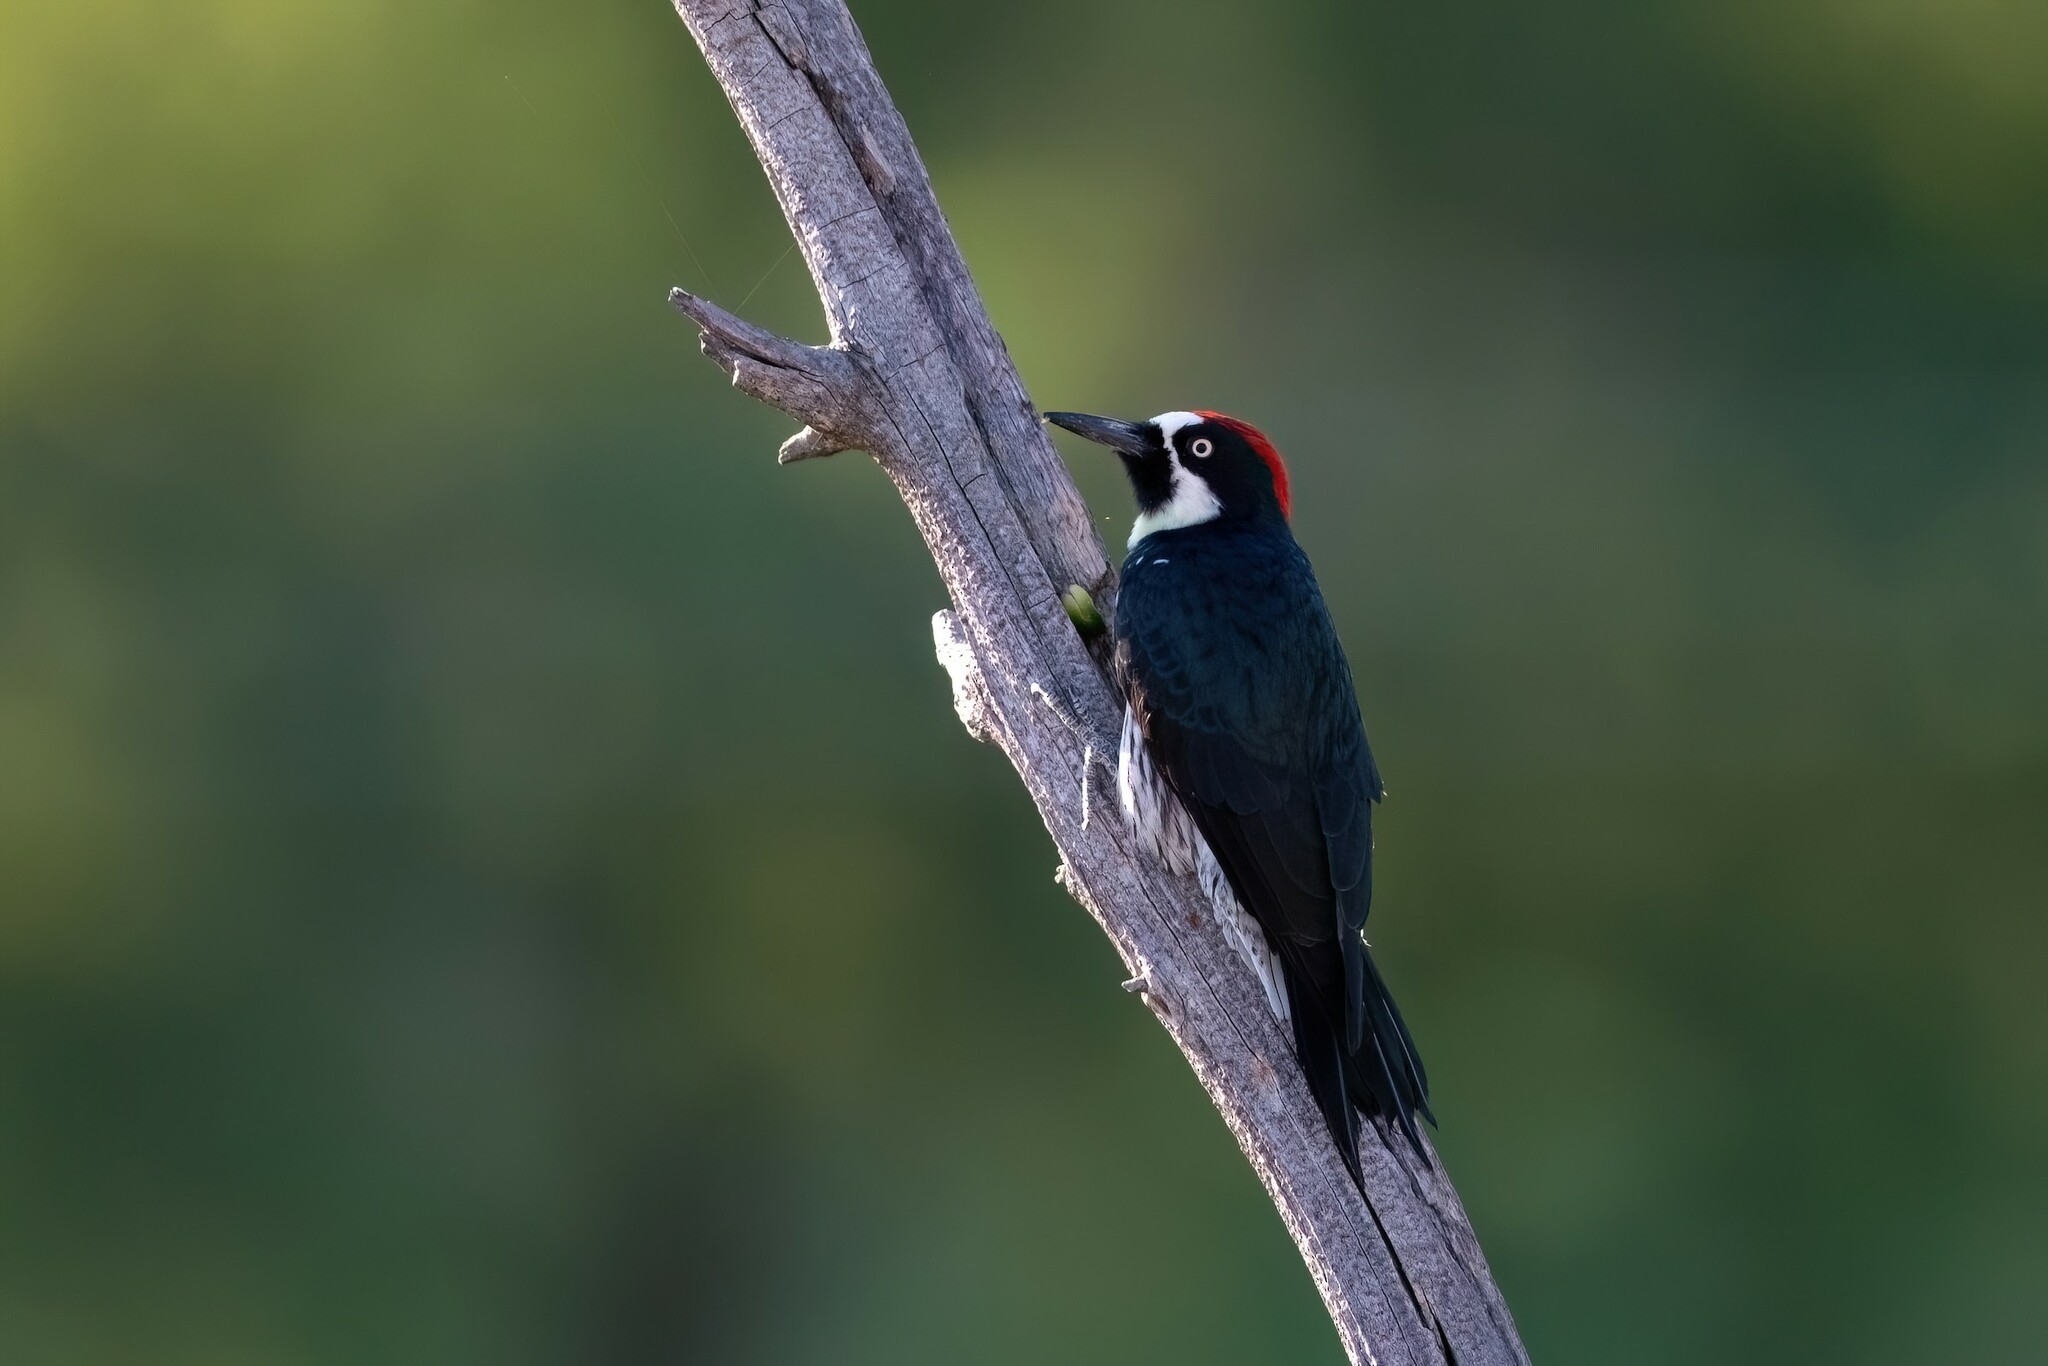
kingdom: Animalia
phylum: Chordata
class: Aves
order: Piciformes
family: Picidae
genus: Melanerpes
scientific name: Melanerpes formicivorus
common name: Acorn woodpecker
